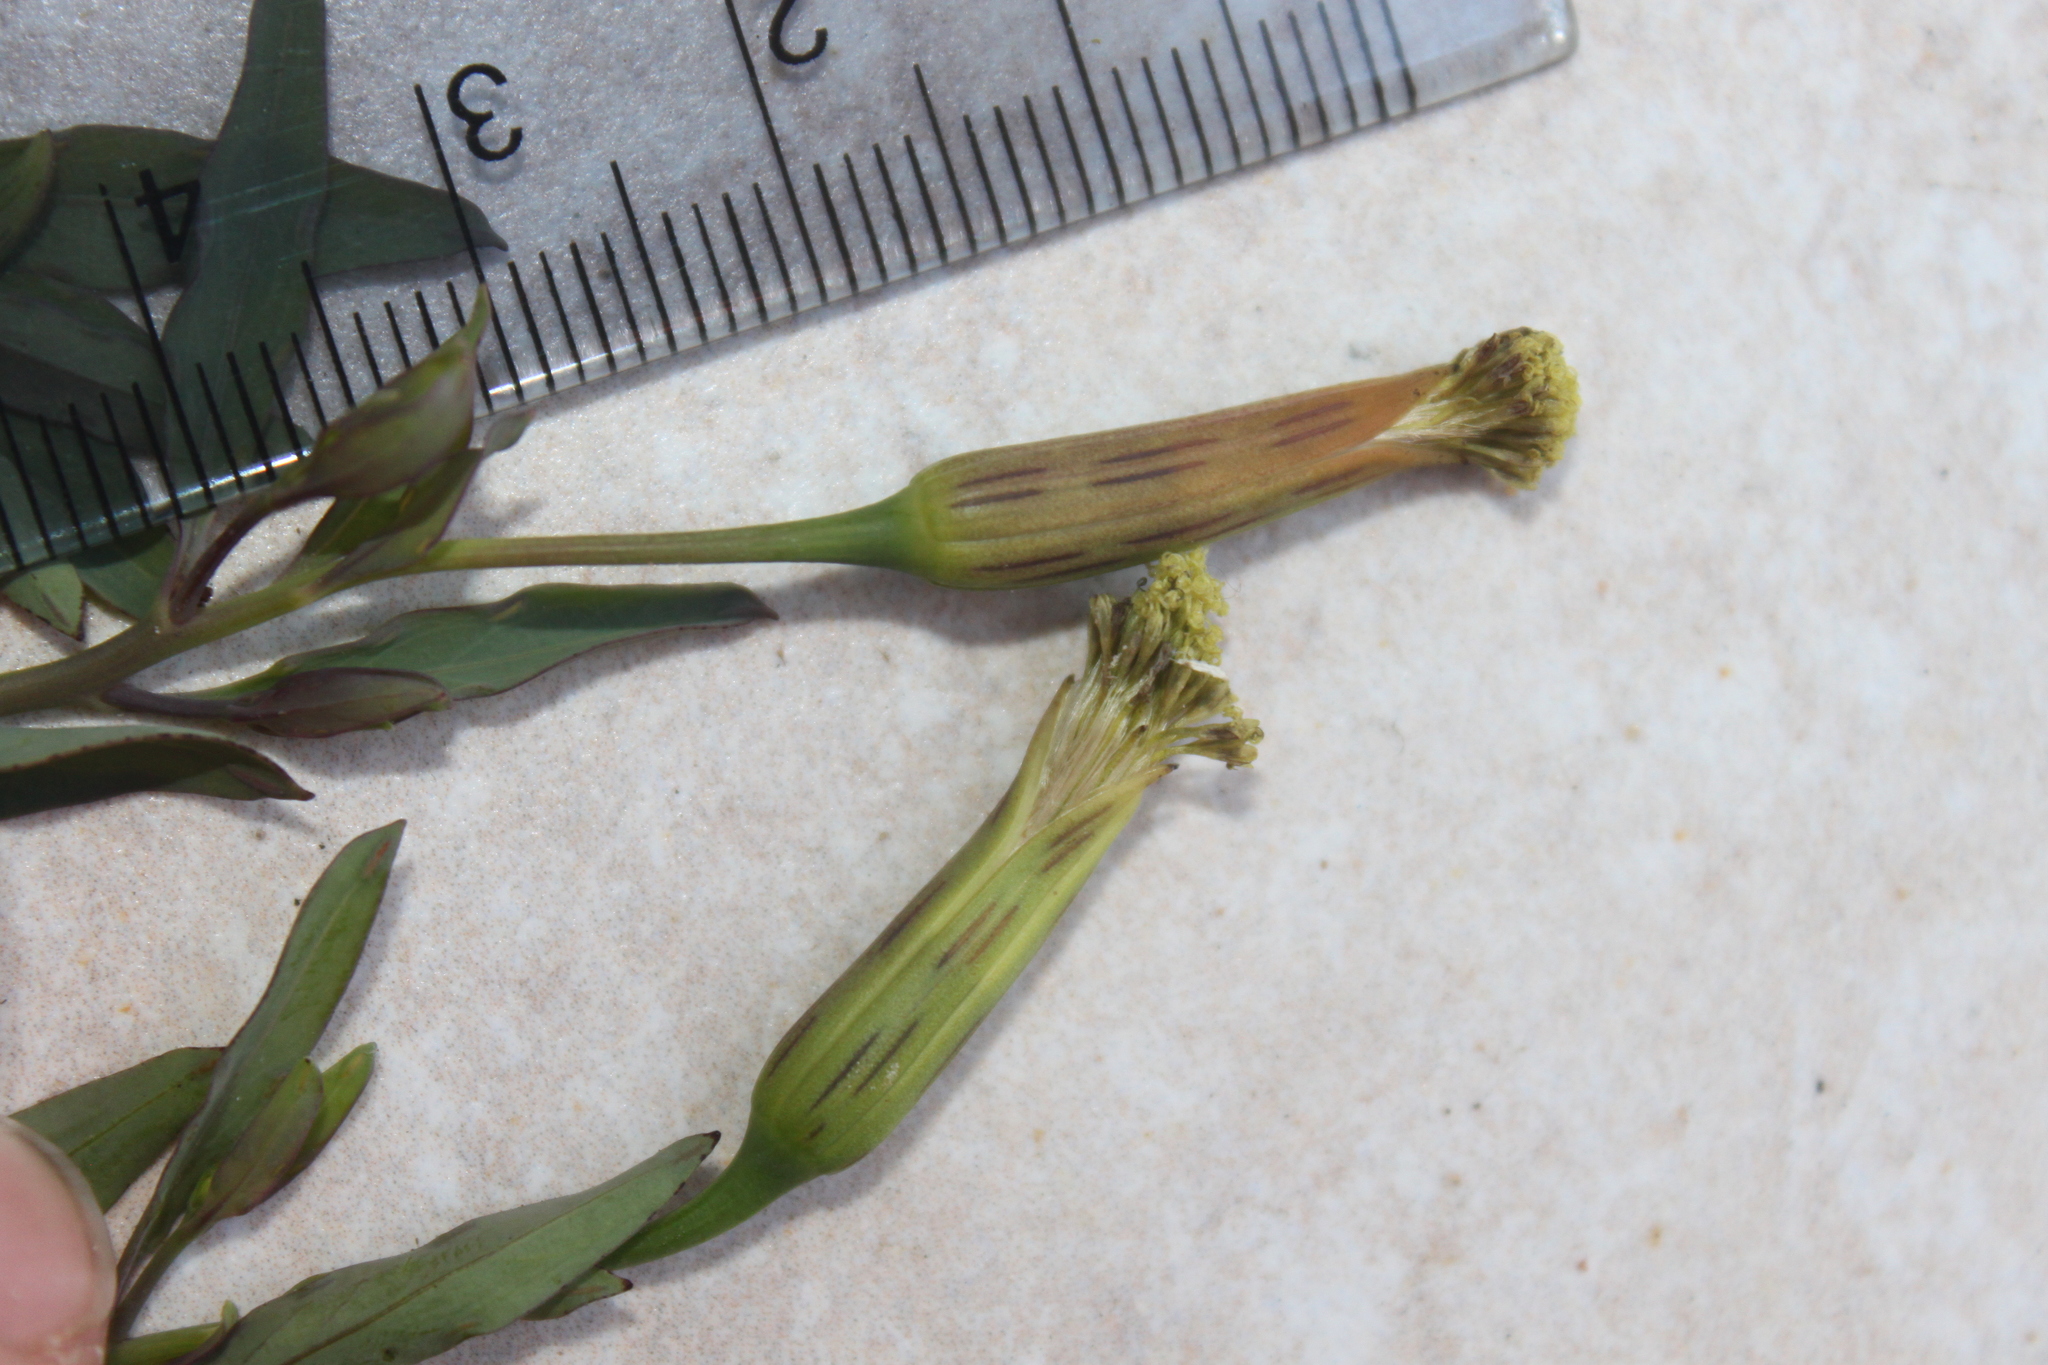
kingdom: Plantae
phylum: Tracheophyta
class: Magnoliopsida
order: Asterales
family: Asteraceae
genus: Porophyllum
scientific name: Porophyllum ruderale
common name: Yerba porosa
